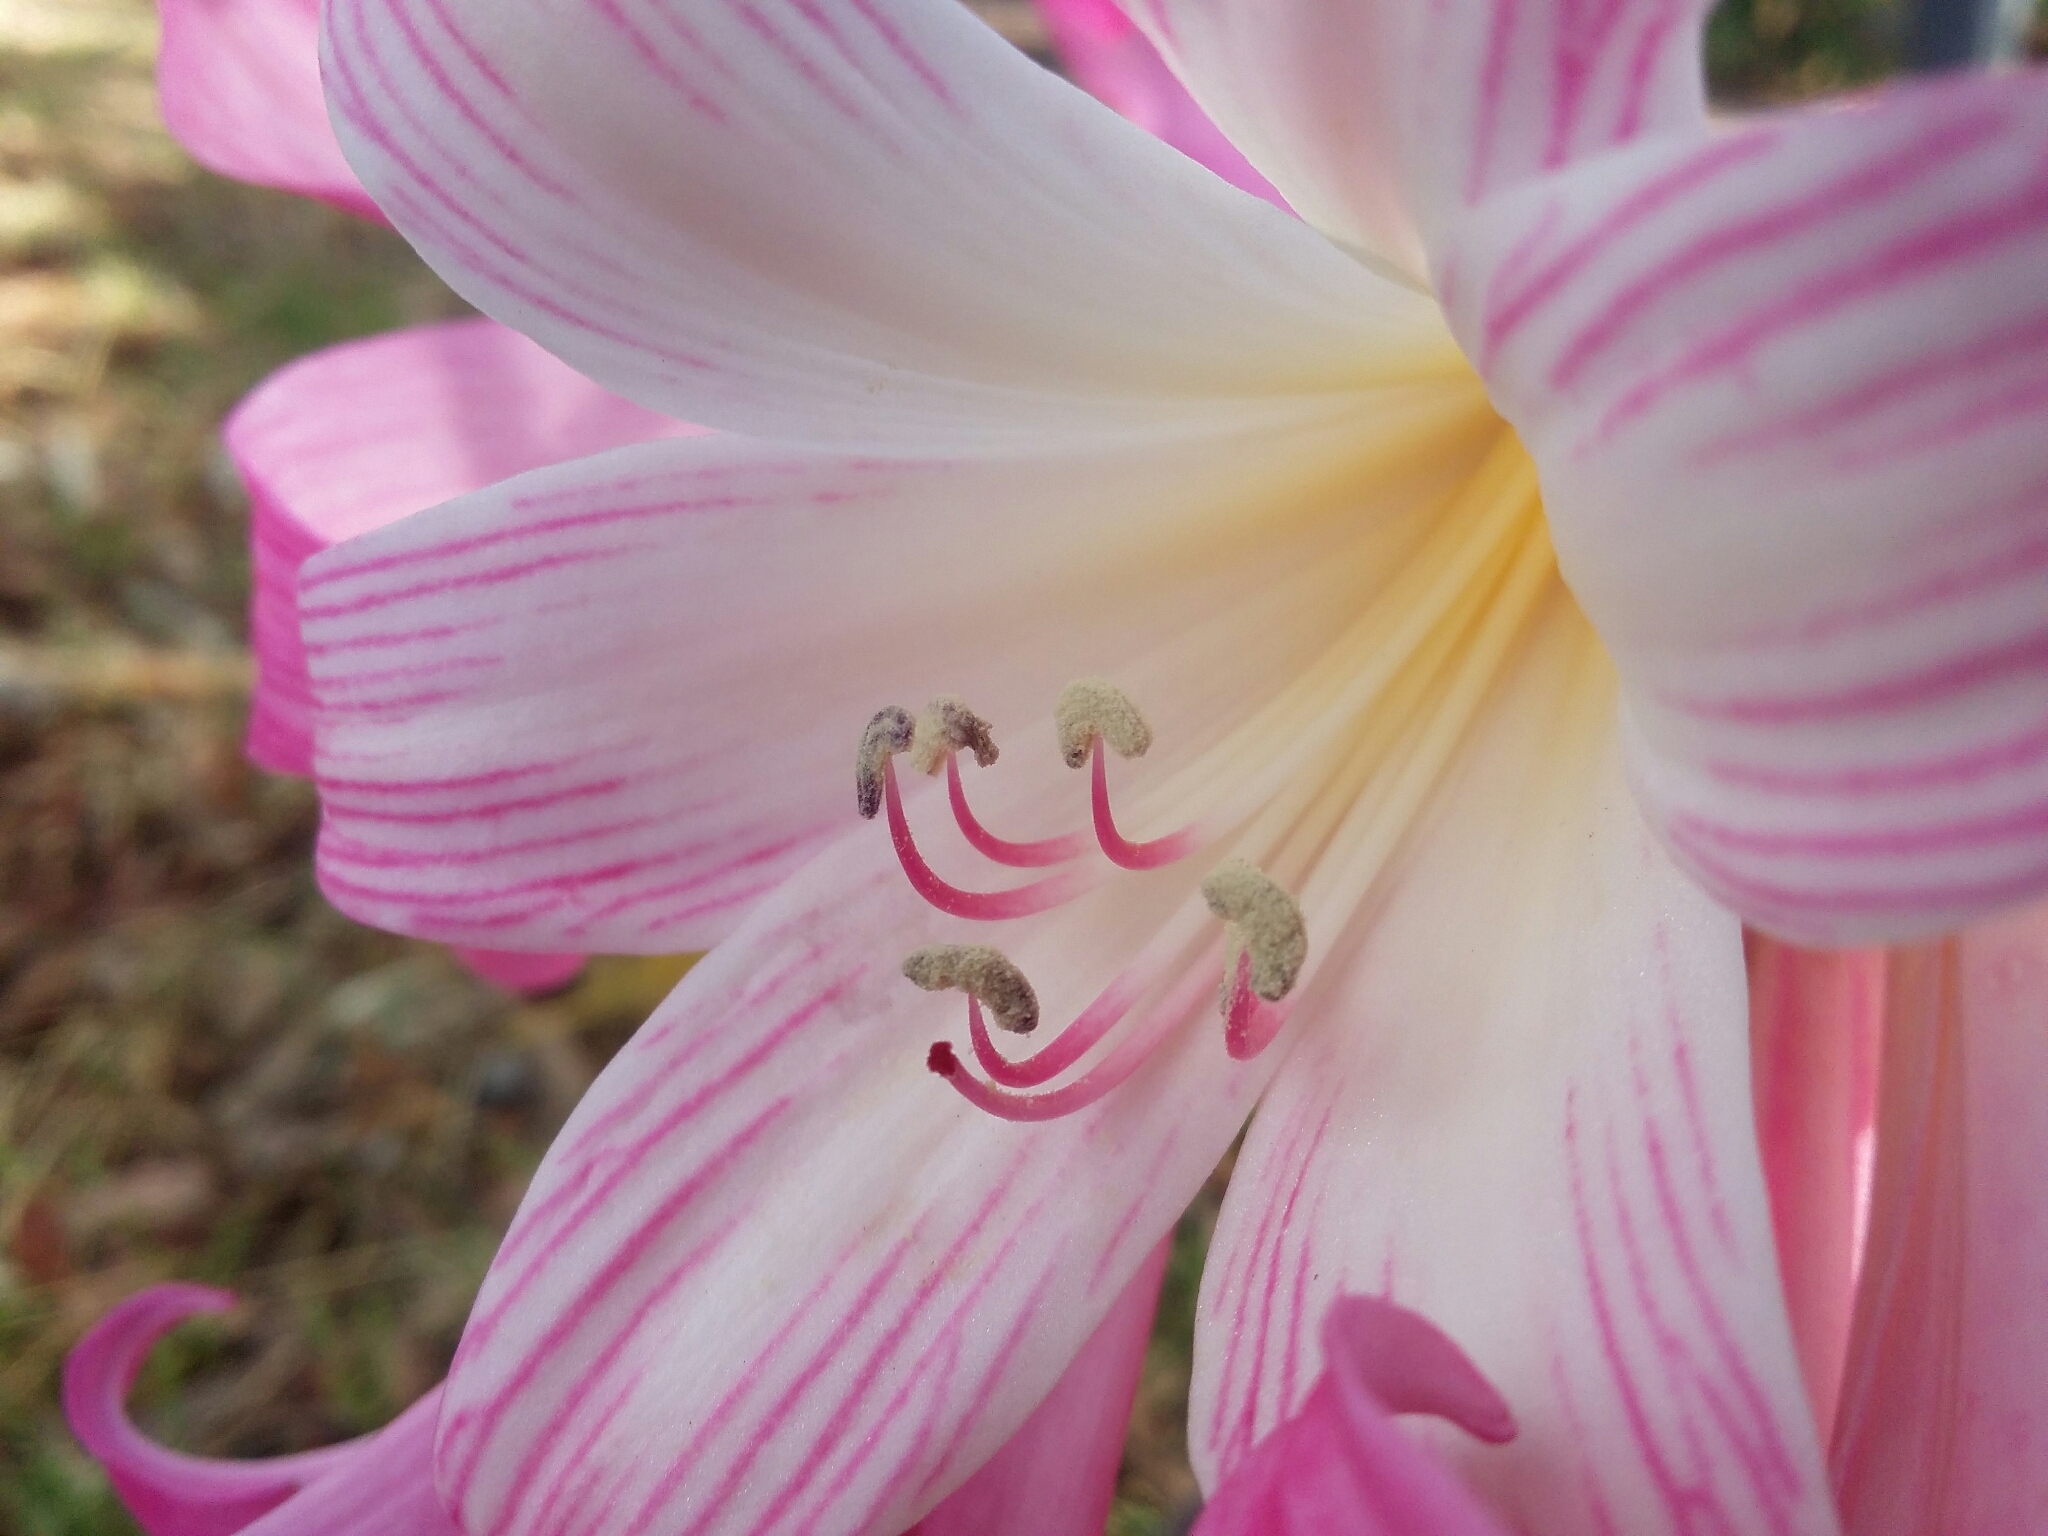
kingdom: Plantae
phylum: Tracheophyta
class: Liliopsida
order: Asparagales
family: Amaryllidaceae
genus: Amaryllis
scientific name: Amaryllis belladonna
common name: Jersey lily
